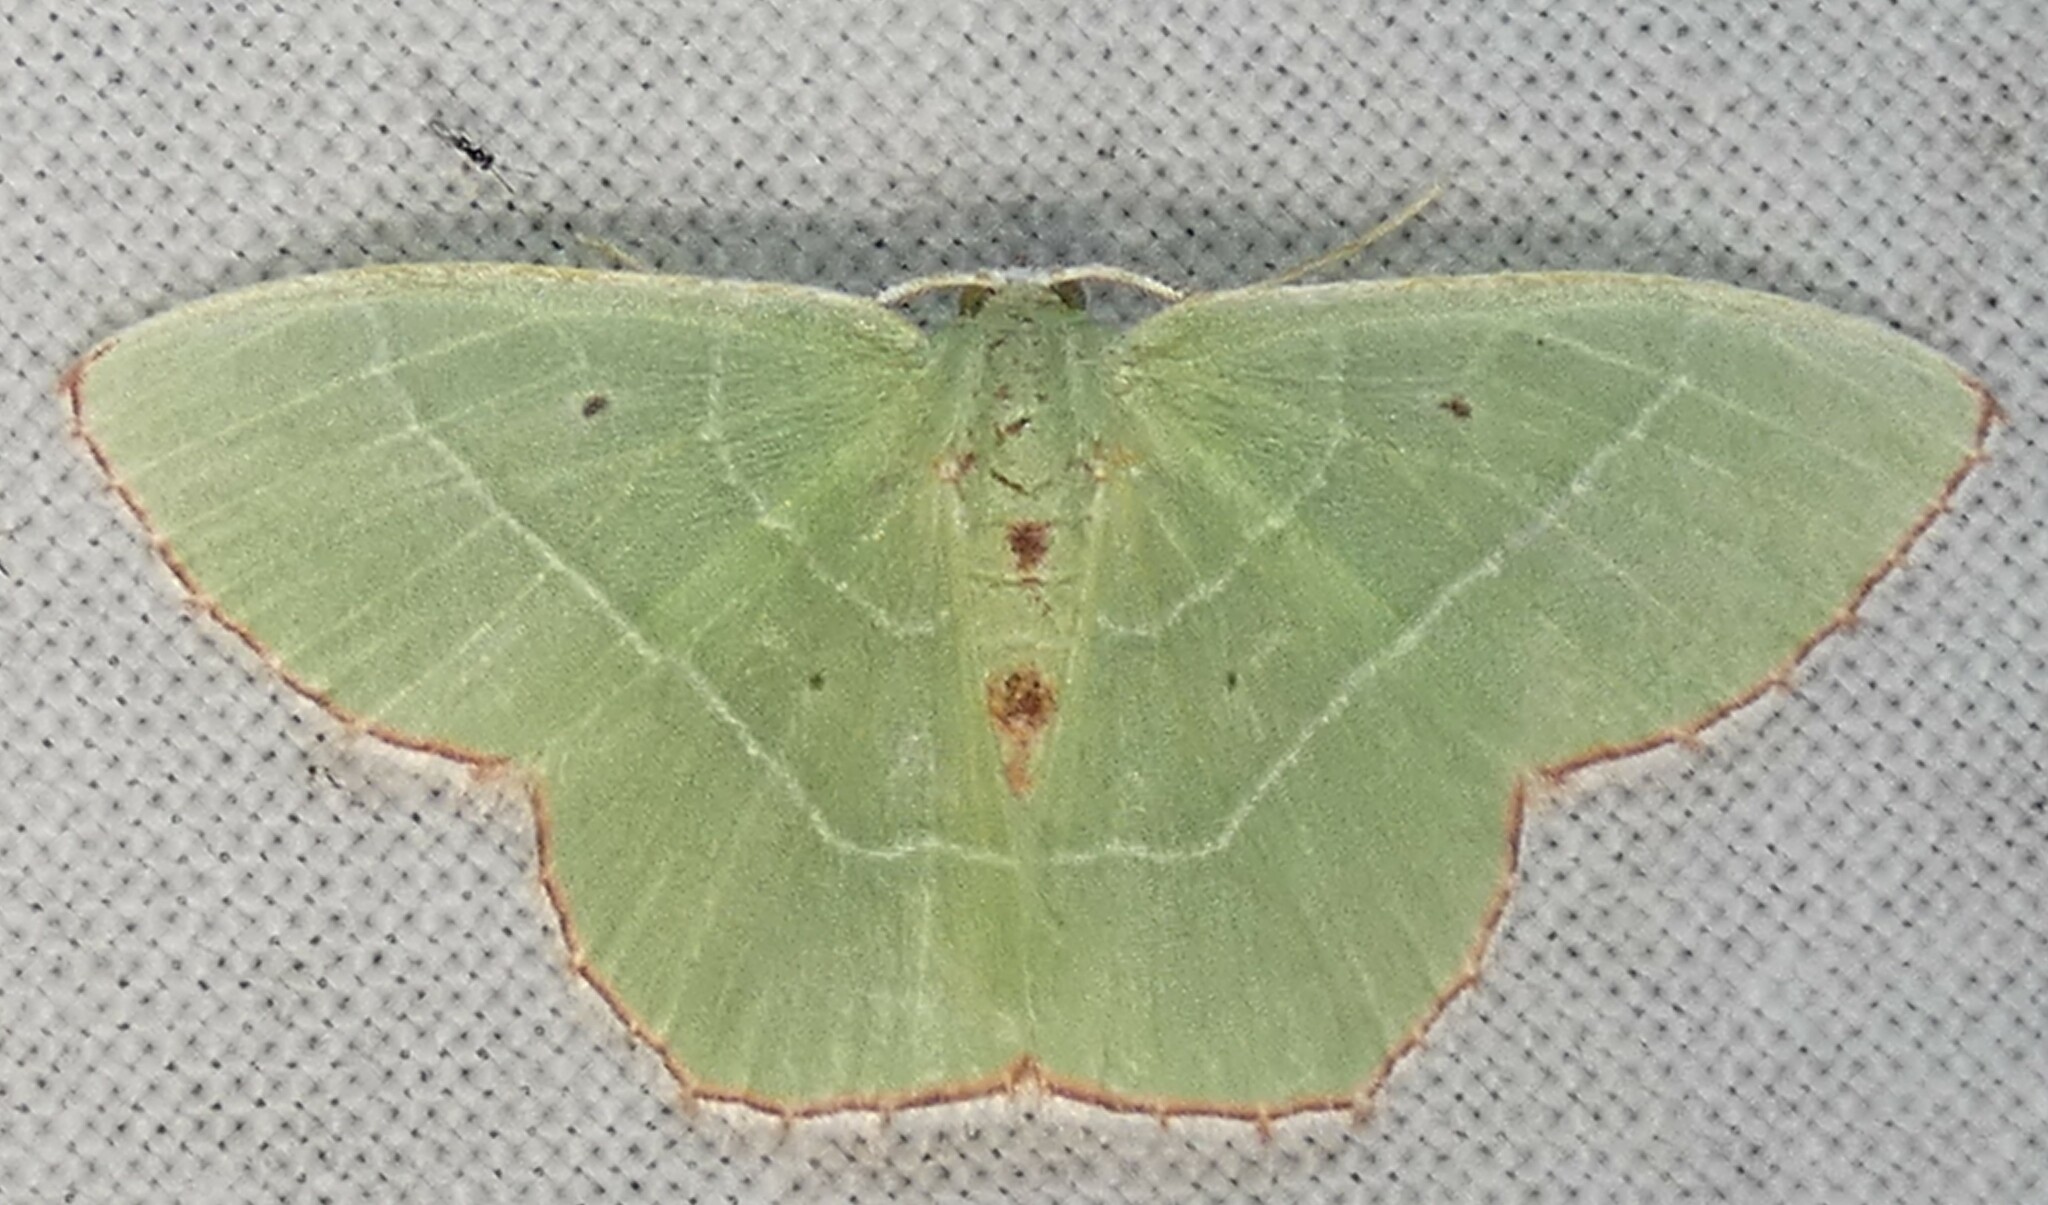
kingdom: Animalia
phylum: Arthropoda
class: Insecta
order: Lepidoptera
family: Geometridae
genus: Nemoria
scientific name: Nemoria saturiba
